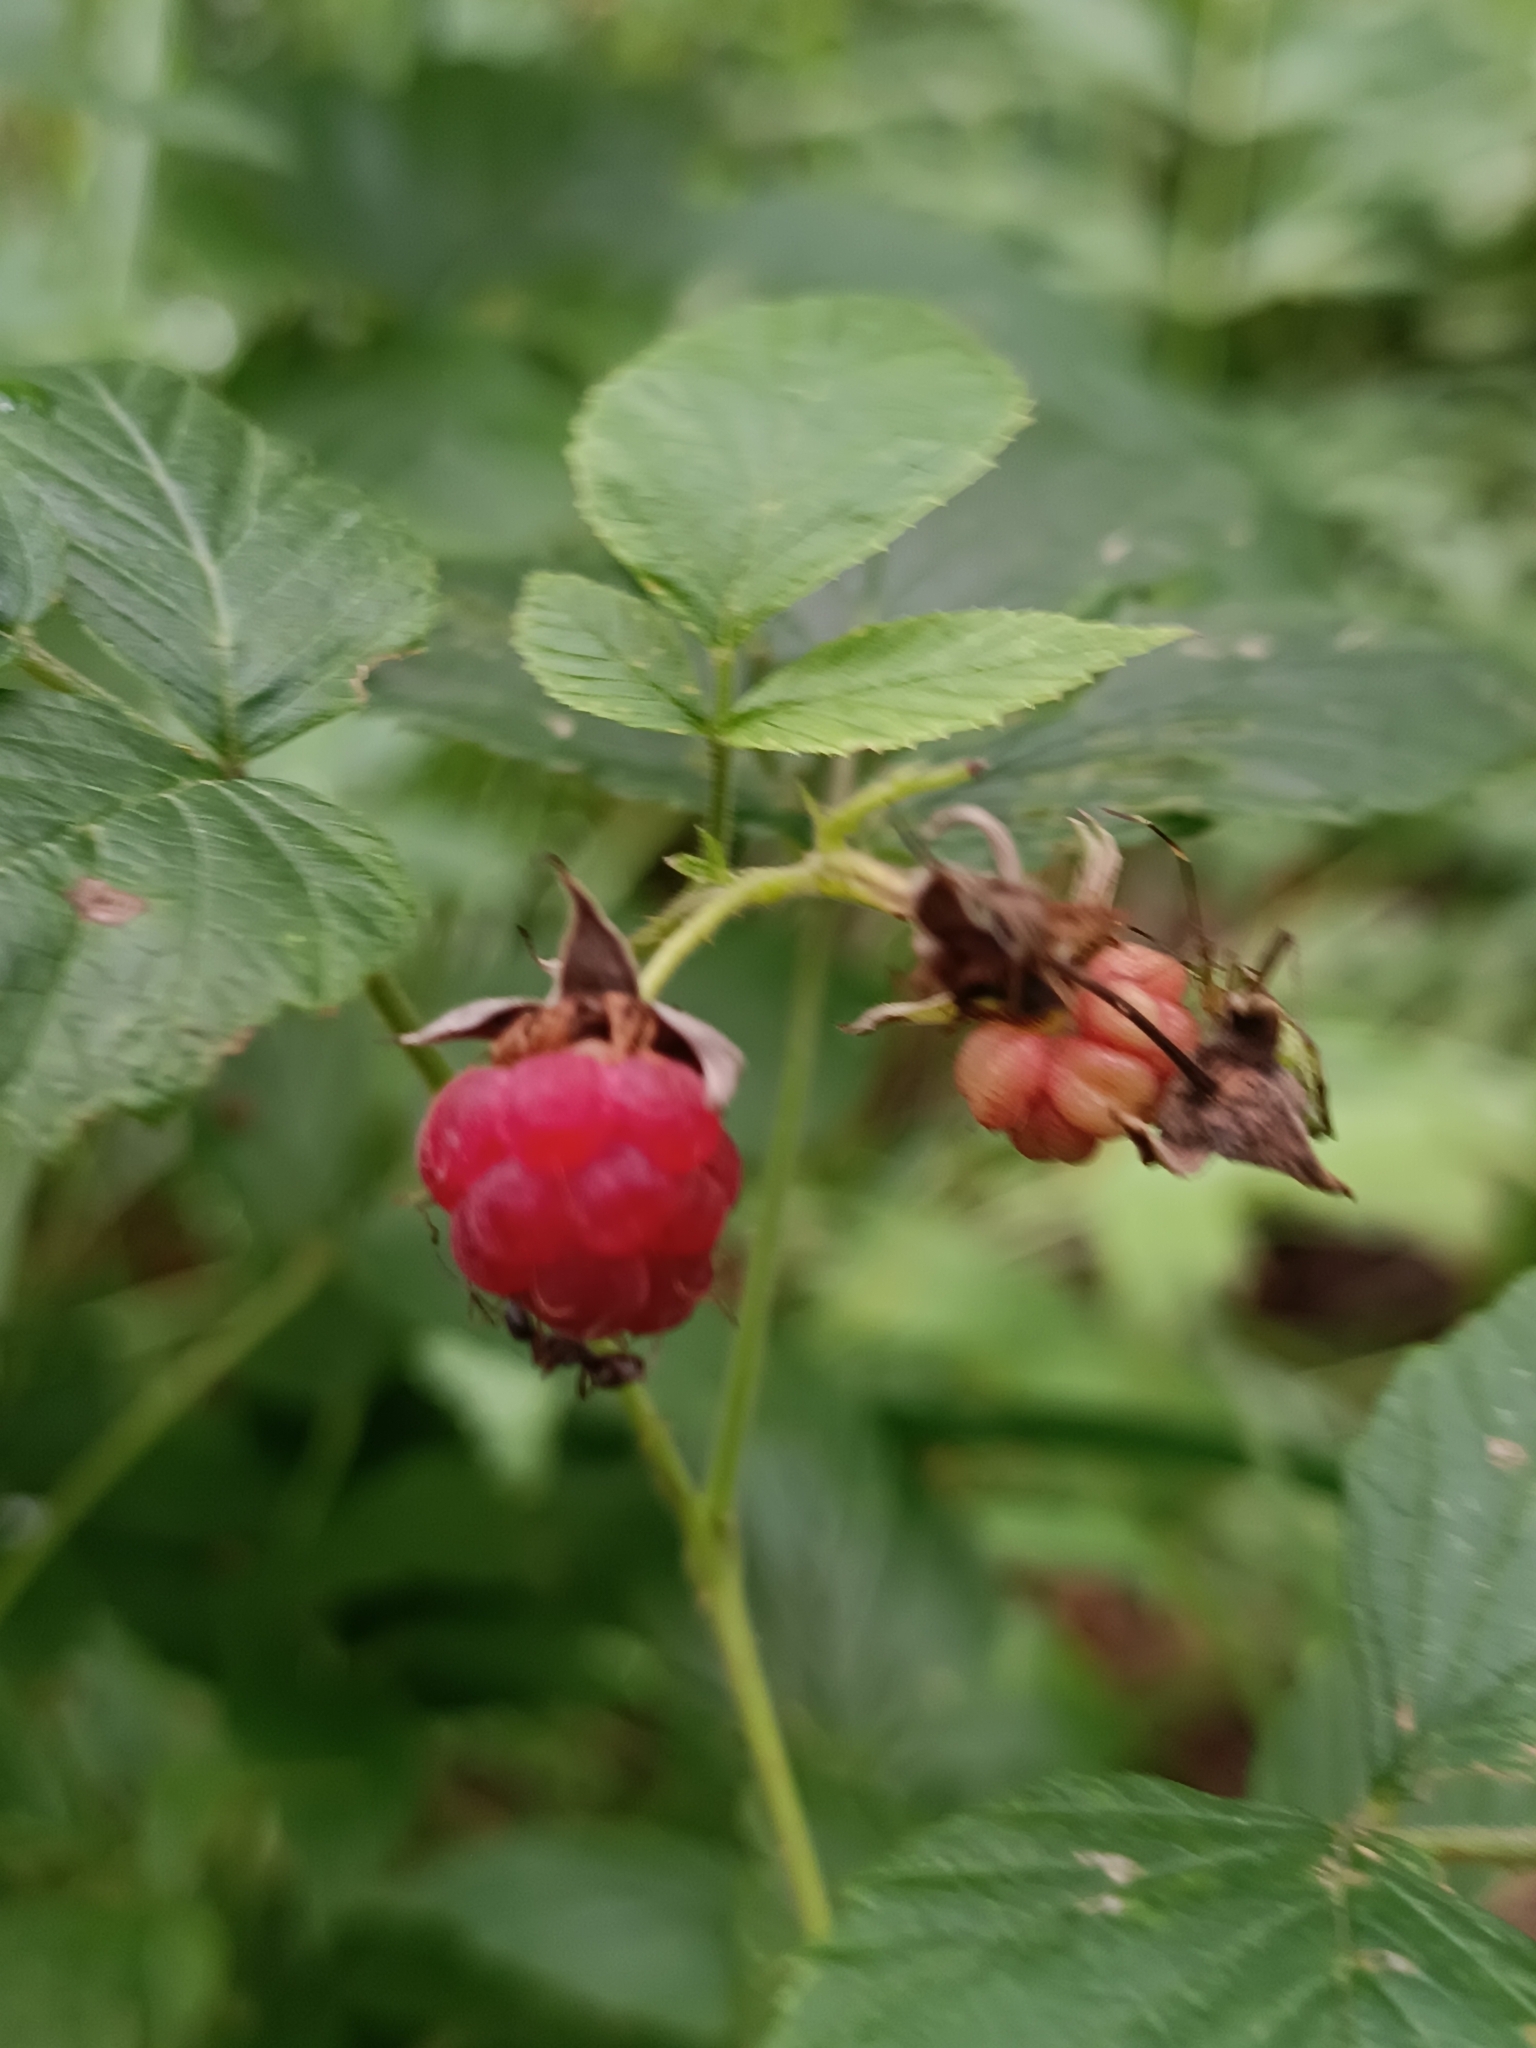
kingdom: Plantae
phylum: Tracheophyta
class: Magnoliopsida
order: Rosales
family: Rosaceae
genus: Rubus
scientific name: Rubus idaeus
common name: Raspberry
